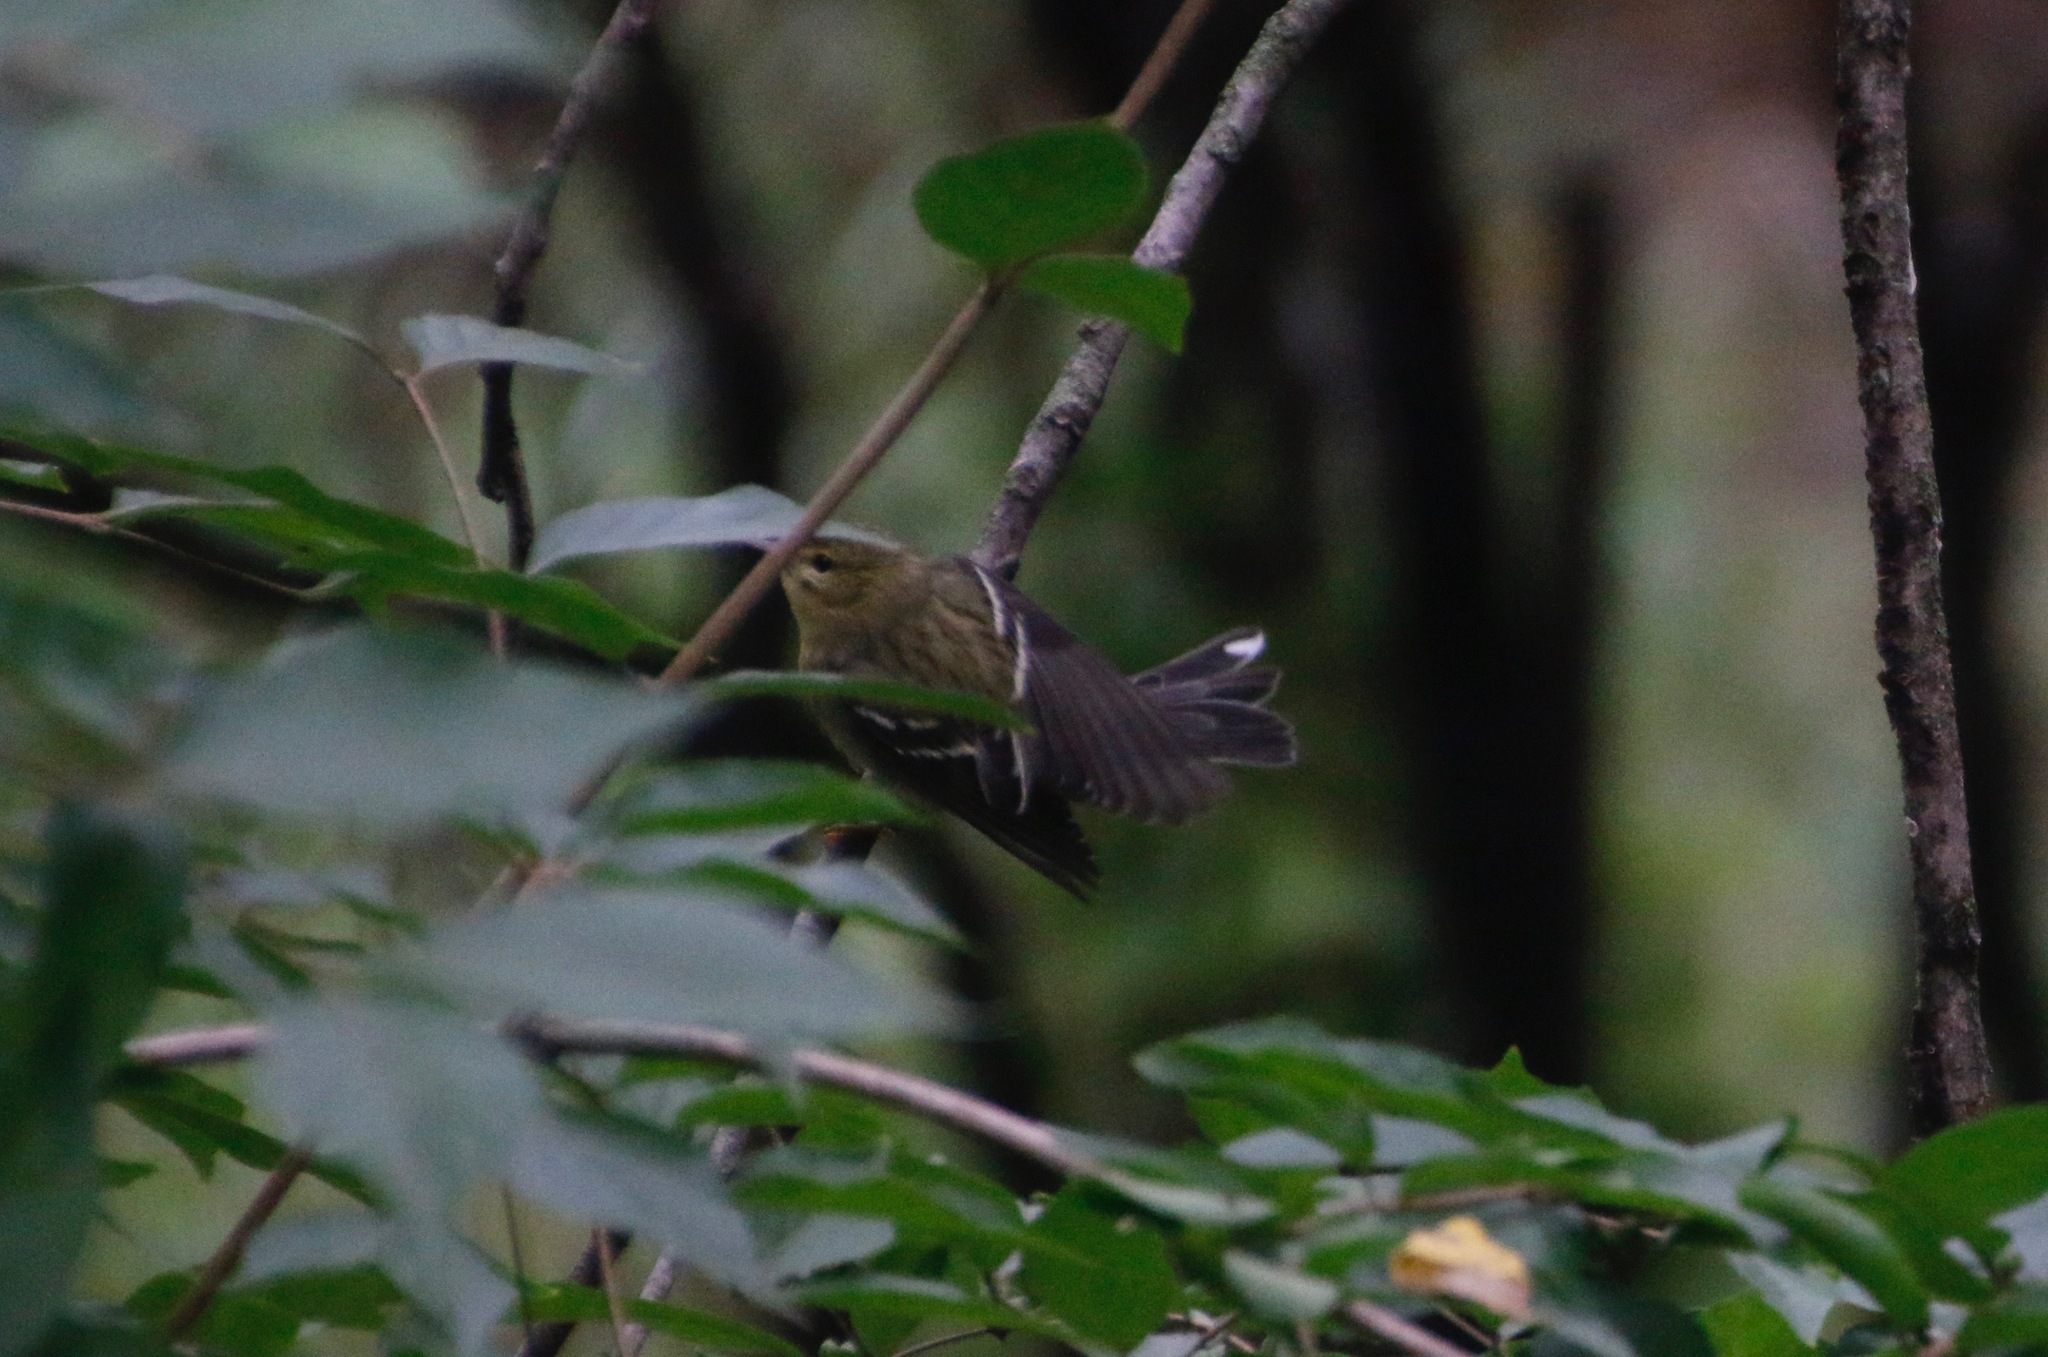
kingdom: Animalia
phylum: Chordata
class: Aves
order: Passeriformes
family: Parulidae
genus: Setophaga
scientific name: Setophaga striata
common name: Blackpoll warbler
